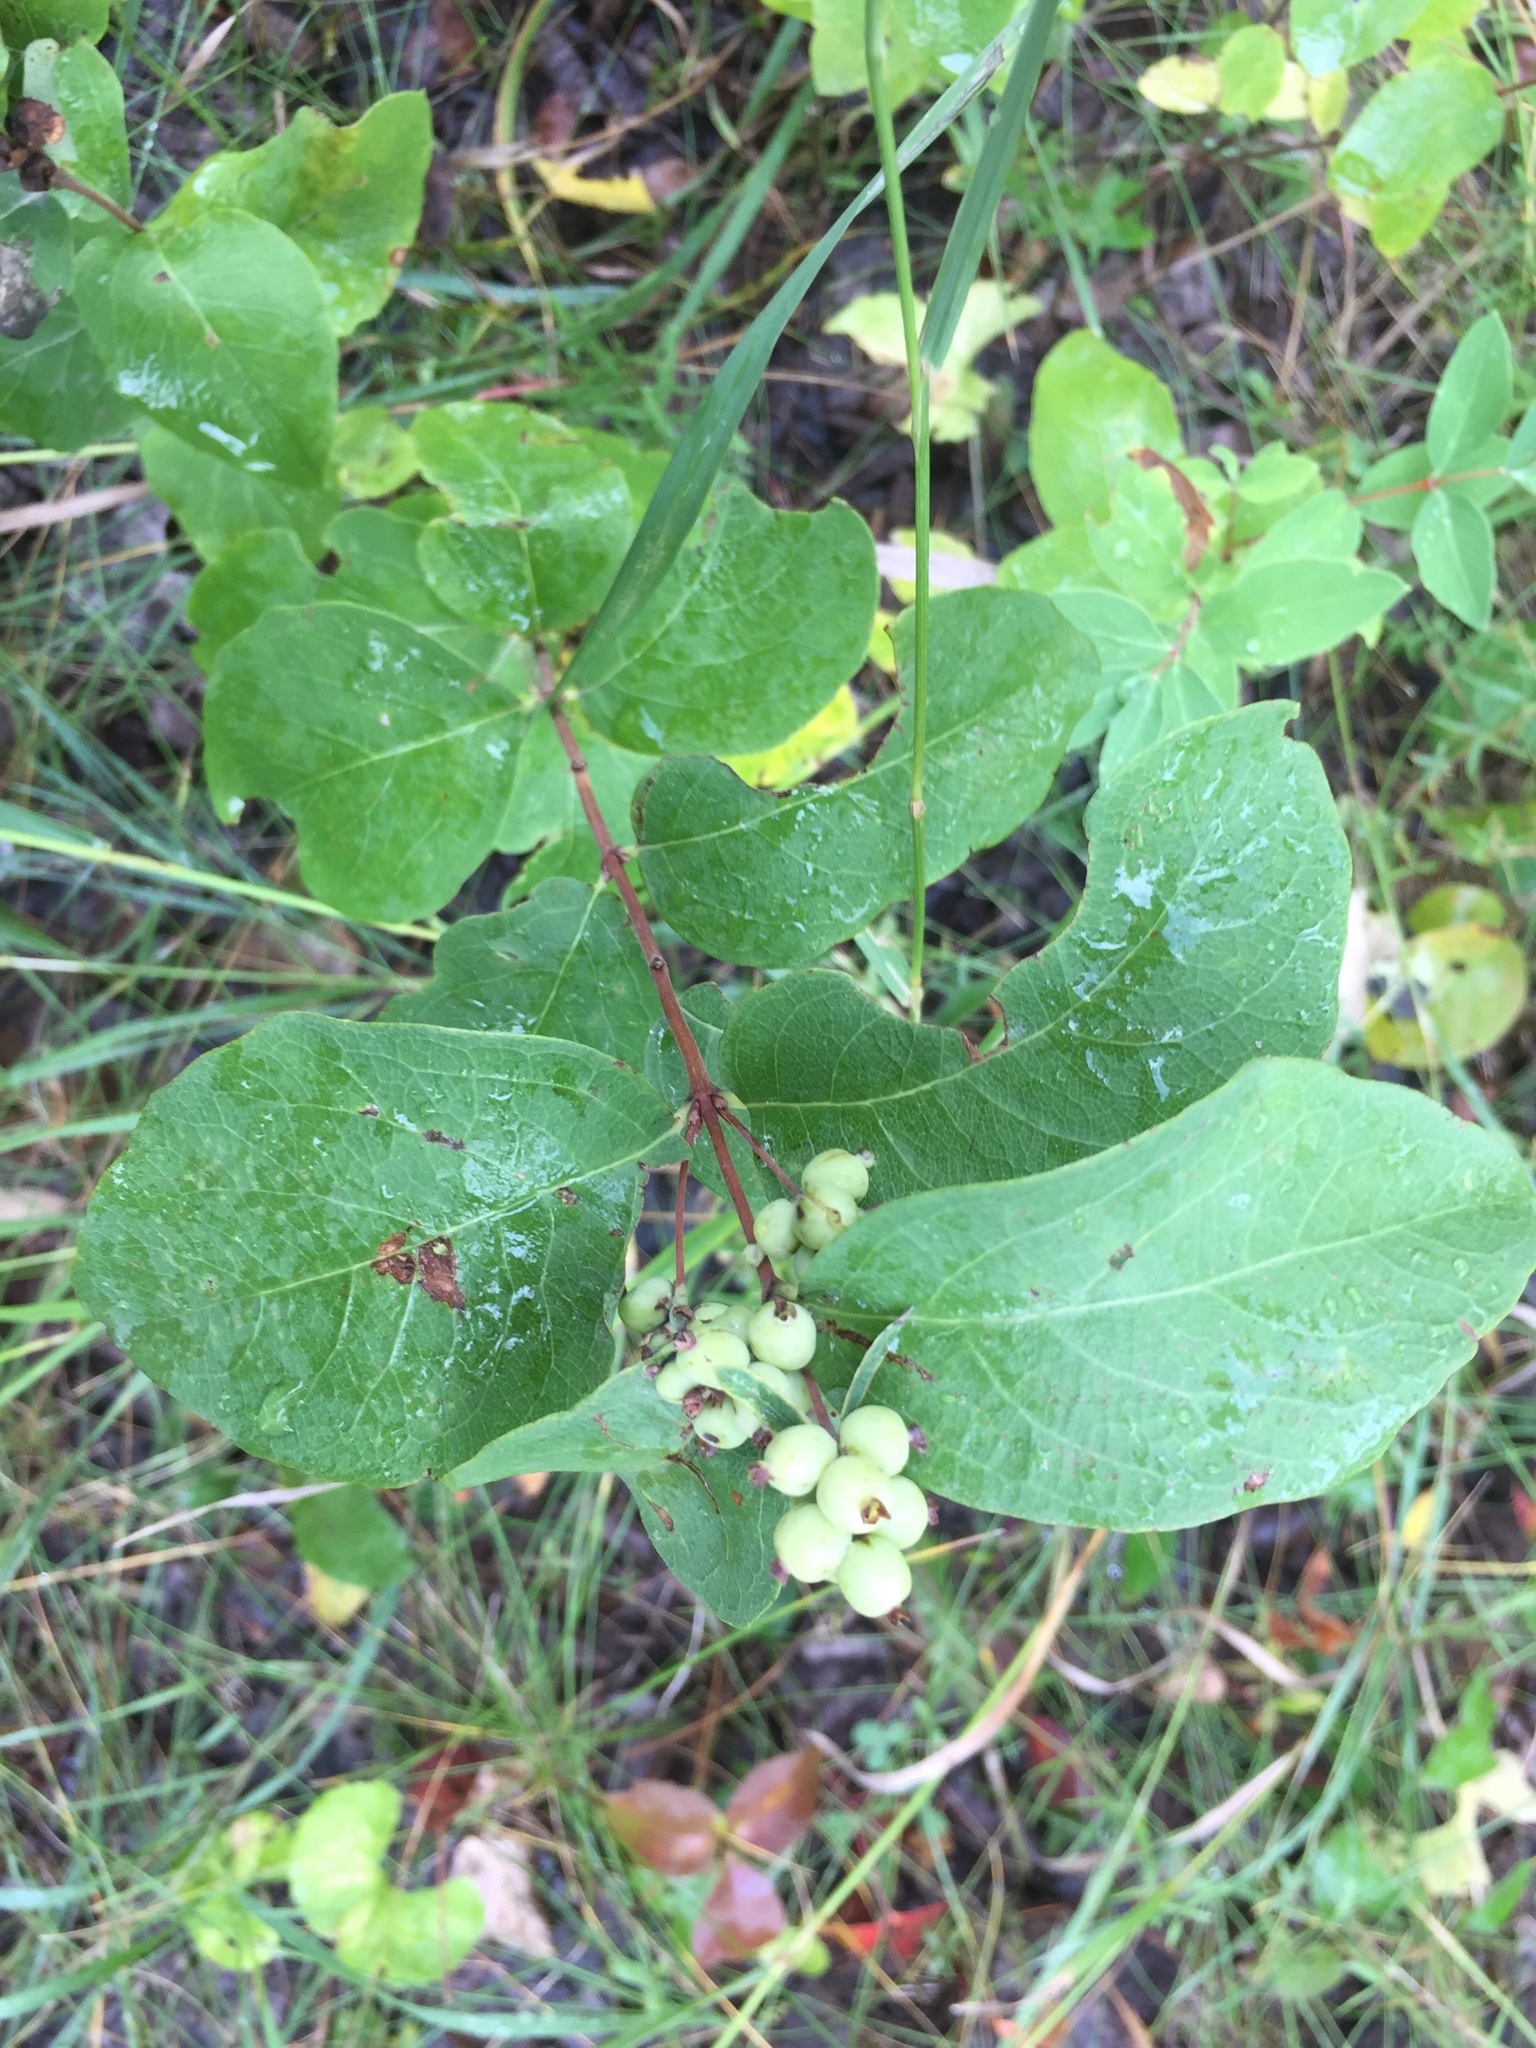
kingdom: Plantae
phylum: Tracheophyta
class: Magnoliopsida
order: Dipsacales
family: Caprifoliaceae
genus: Symphoricarpos
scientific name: Symphoricarpos occidentalis
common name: Wolfberry
